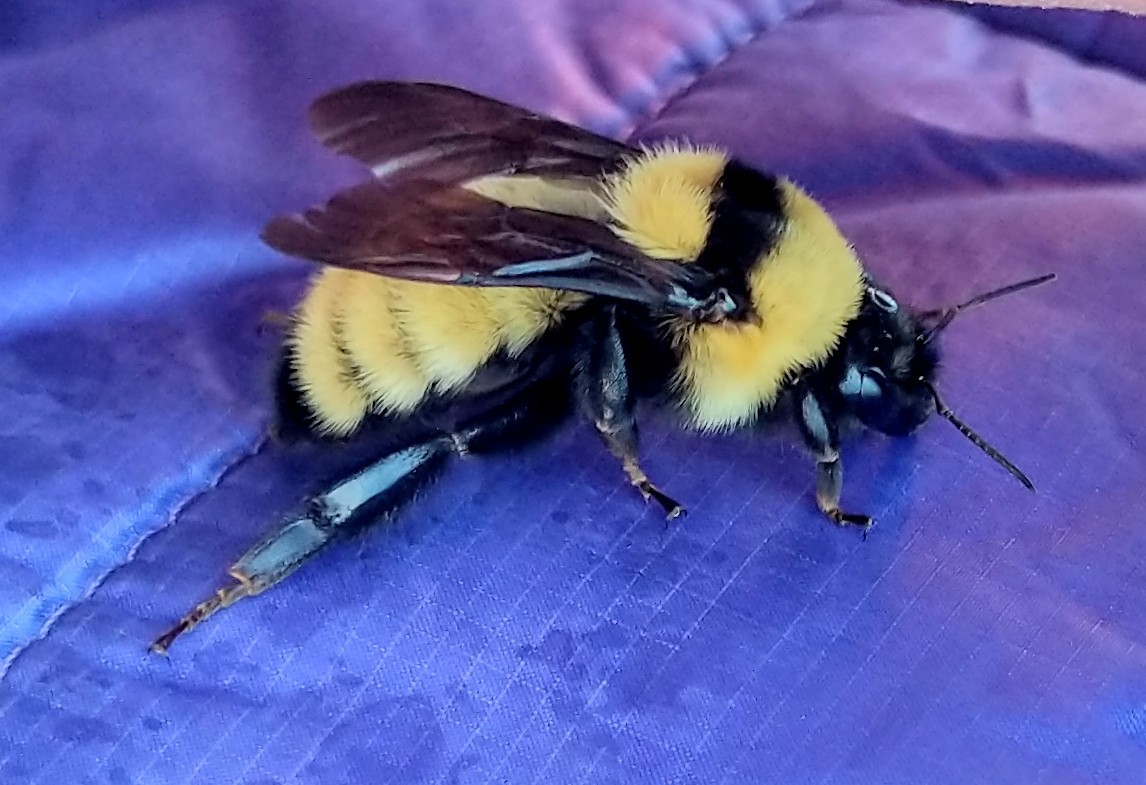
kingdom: Animalia
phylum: Arthropoda
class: Insecta
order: Hymenoptera
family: Apidae
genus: Bombus
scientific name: Bombus fervidus
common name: Yellow bumble bee
